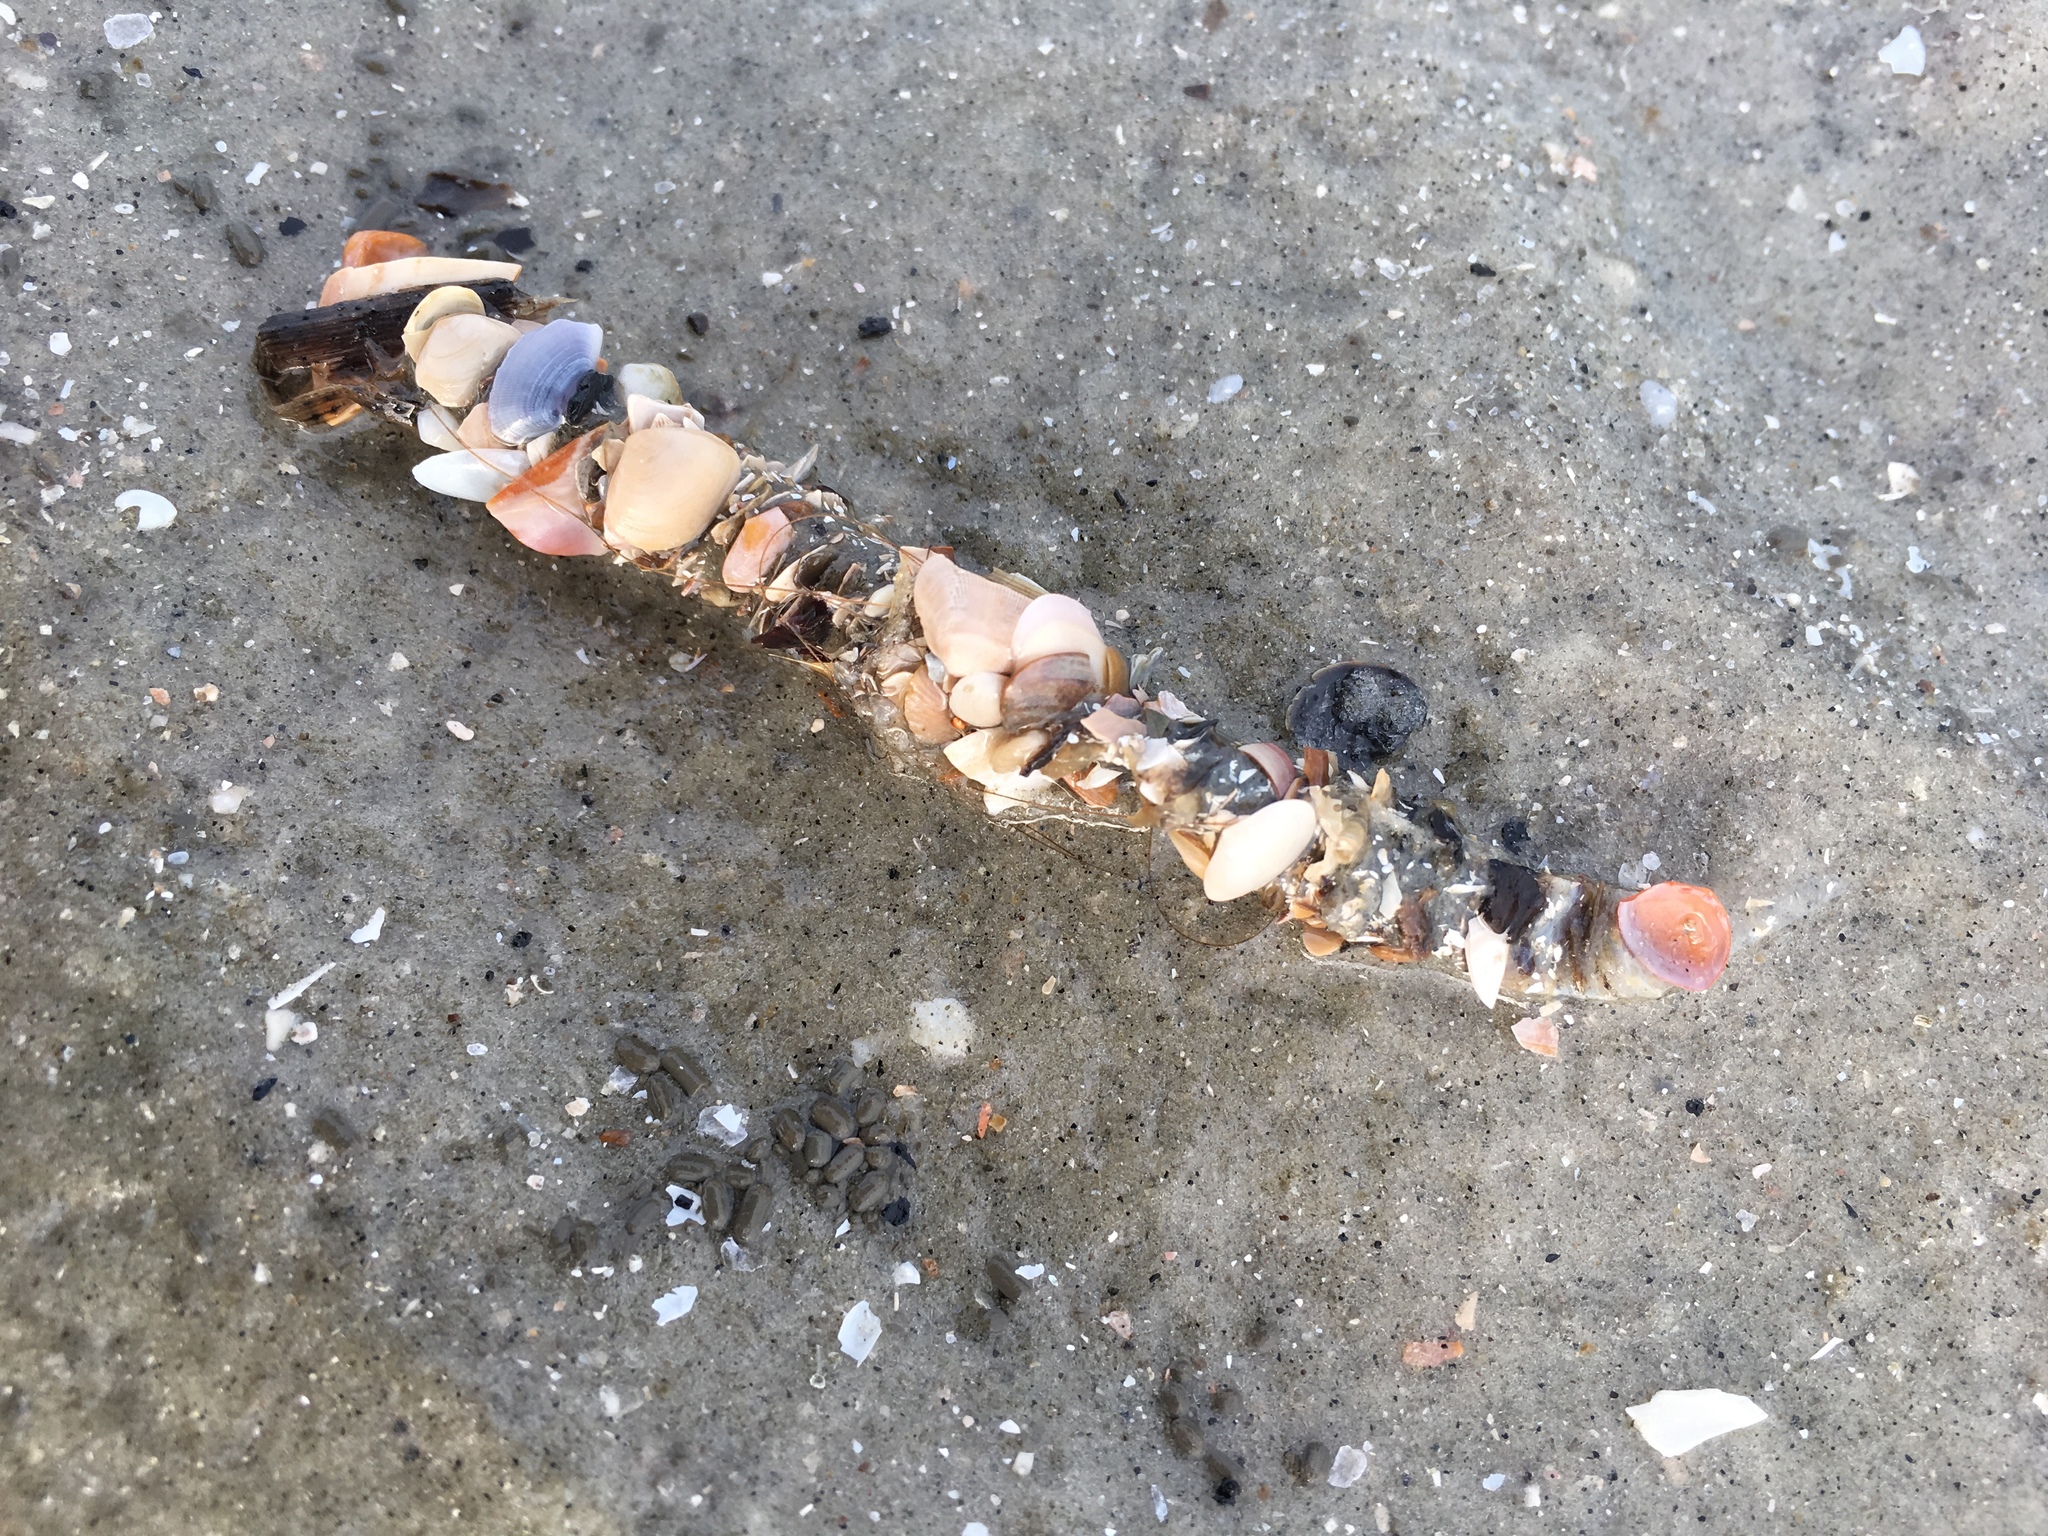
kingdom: Animalia
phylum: Annelida
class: Polychaeta
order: Eunicida
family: Onuphidae
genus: Diopatra
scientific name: Diopatra cuprea
